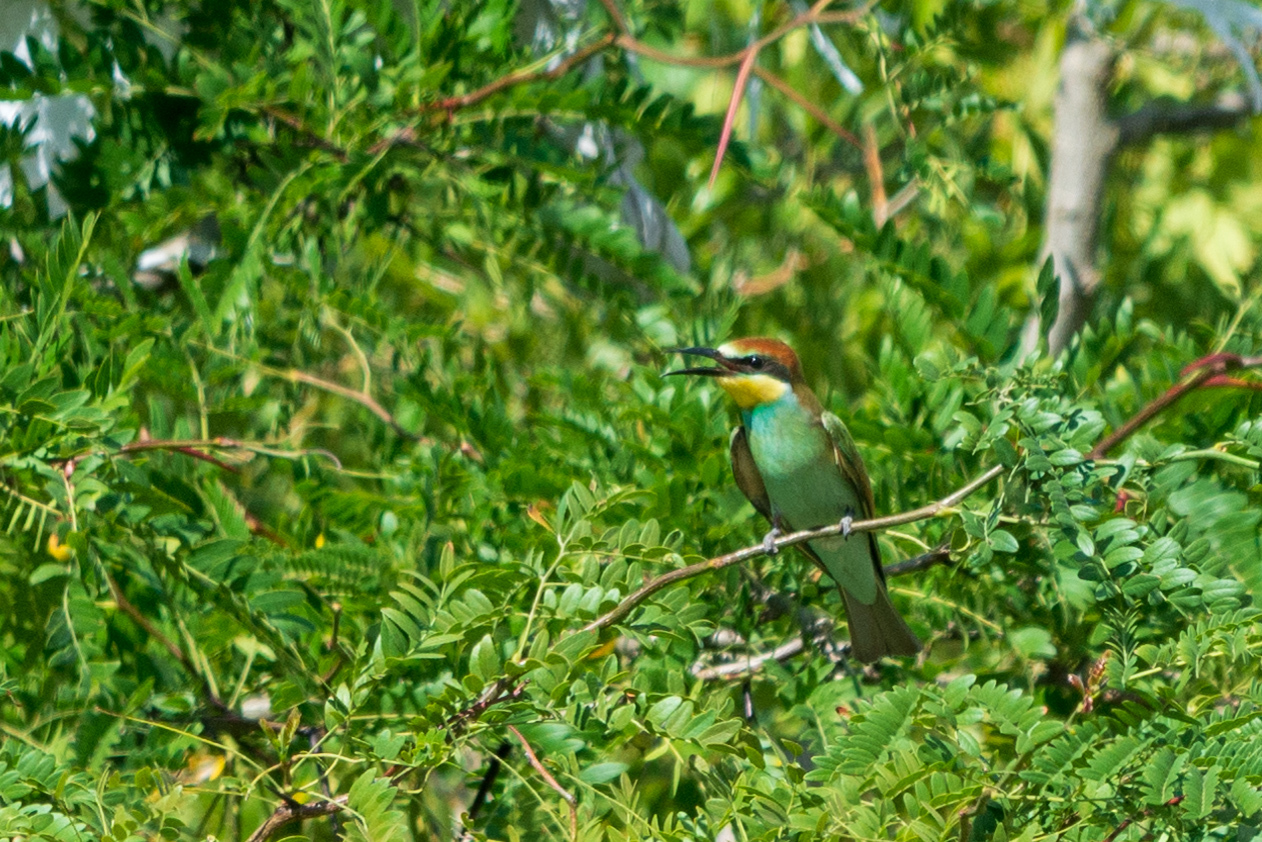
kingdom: Animalia
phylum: Chordata
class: Aves
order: Coraciiformes
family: Meropidae
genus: Merops
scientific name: Merops apiaster
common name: European bee-eater
